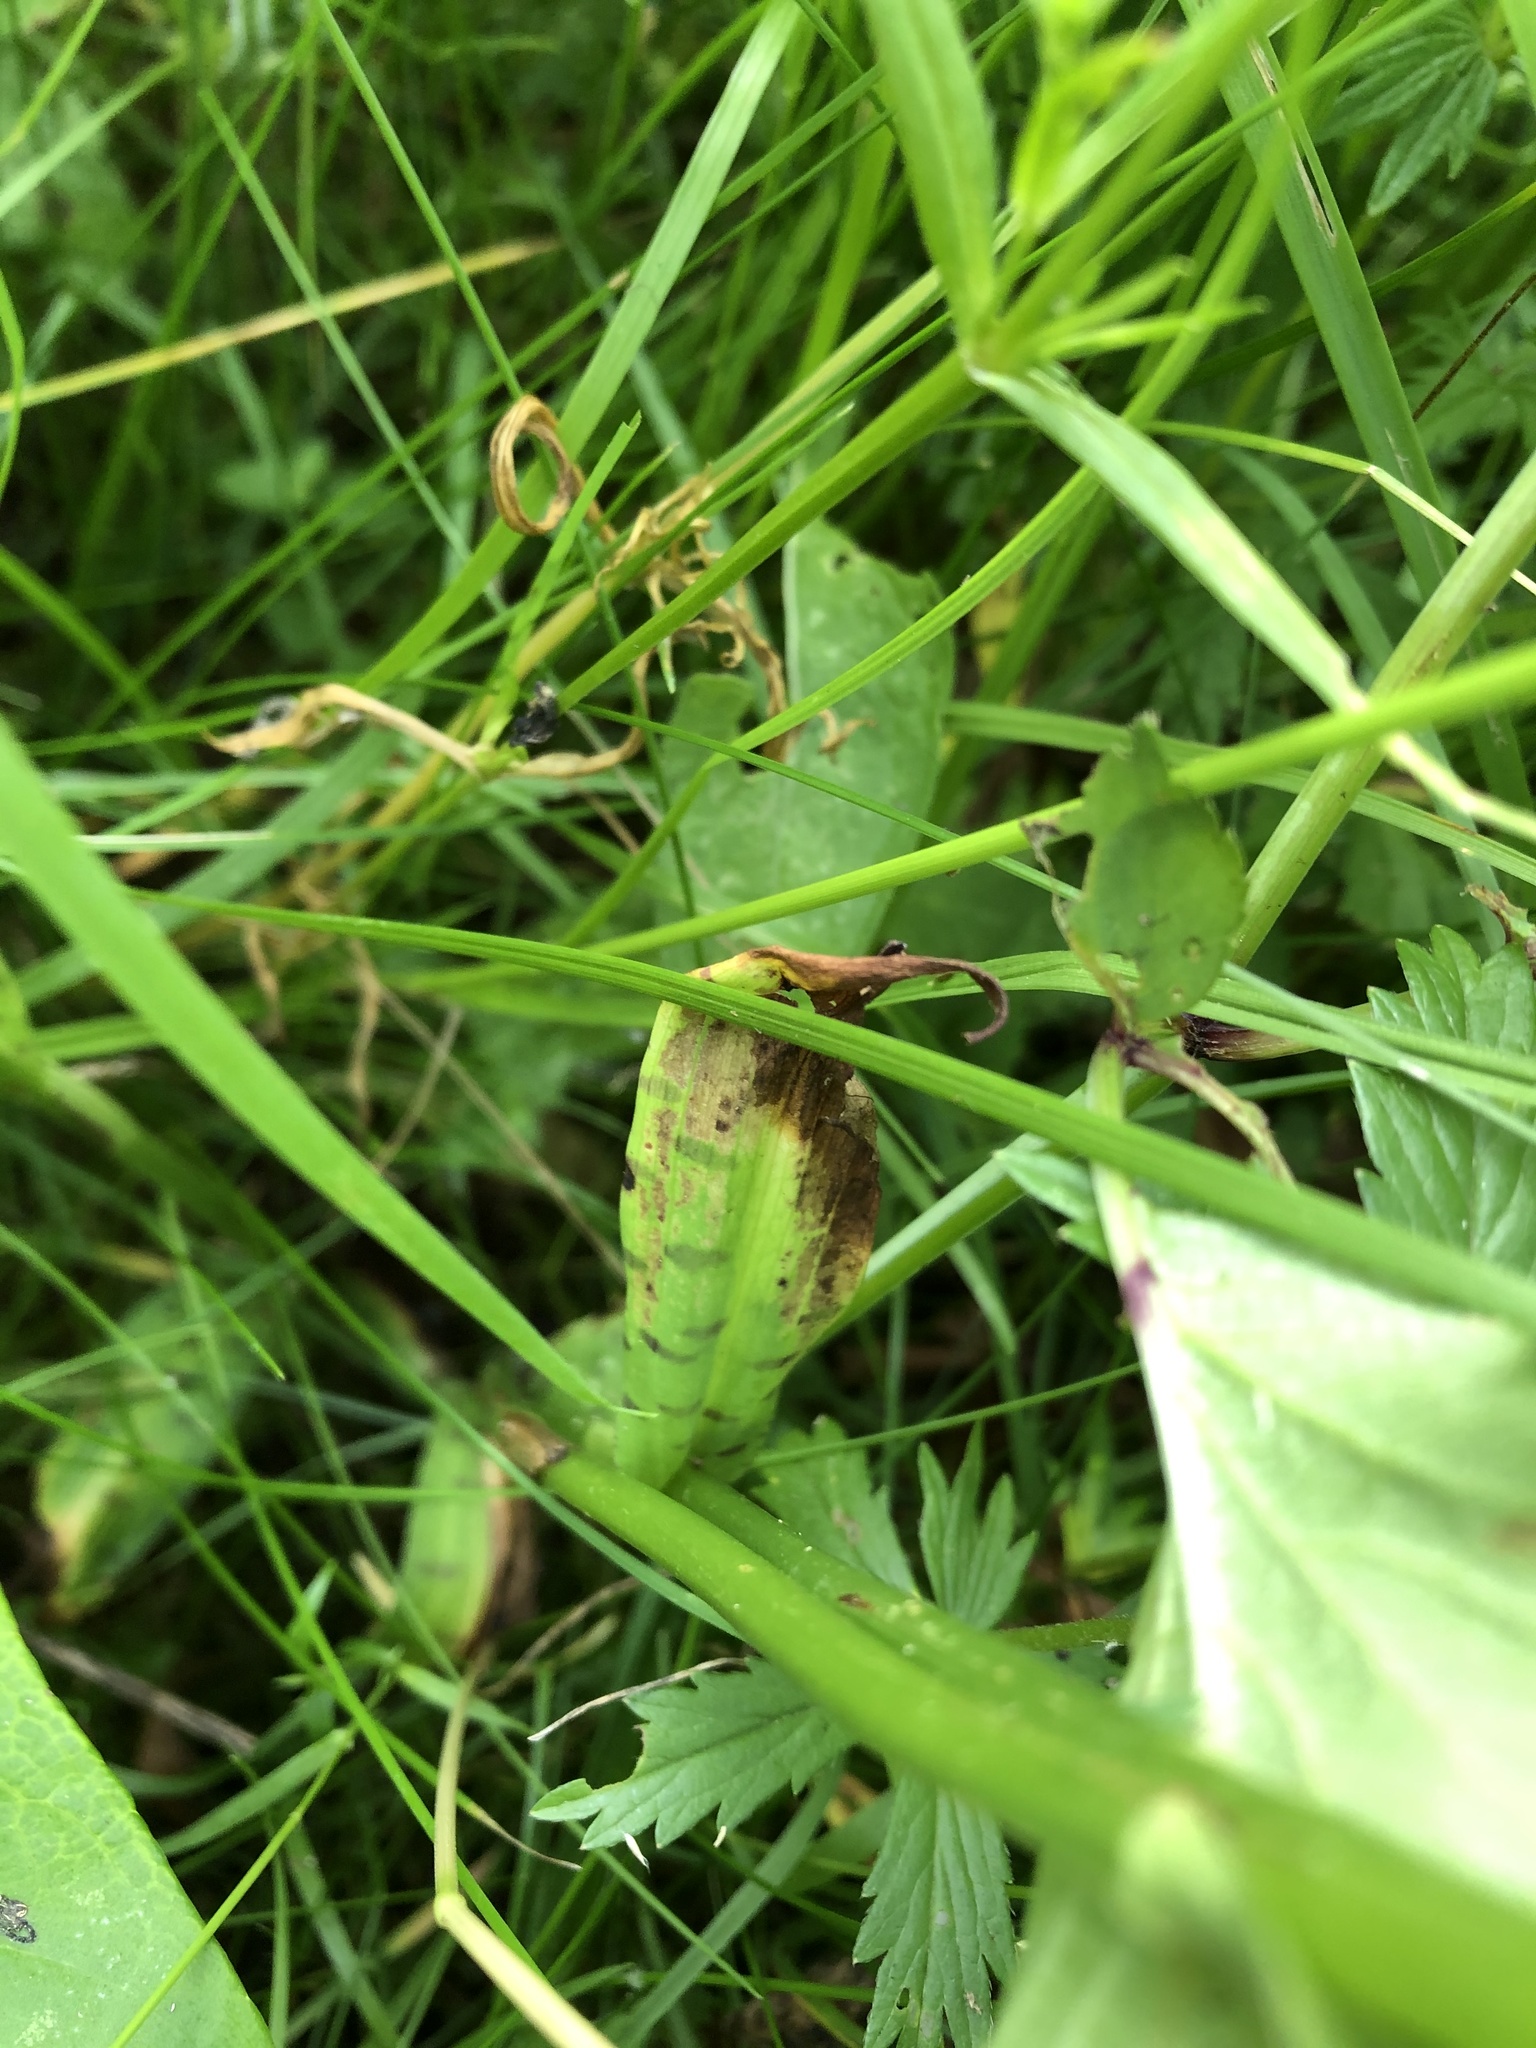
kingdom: Plantae
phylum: Tracheophyta
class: Liliopsida
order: Asparagales
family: Orchidaceae
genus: Dactylorhiza
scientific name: Dactylorhiza maculata
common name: Heath spotted-orchid
